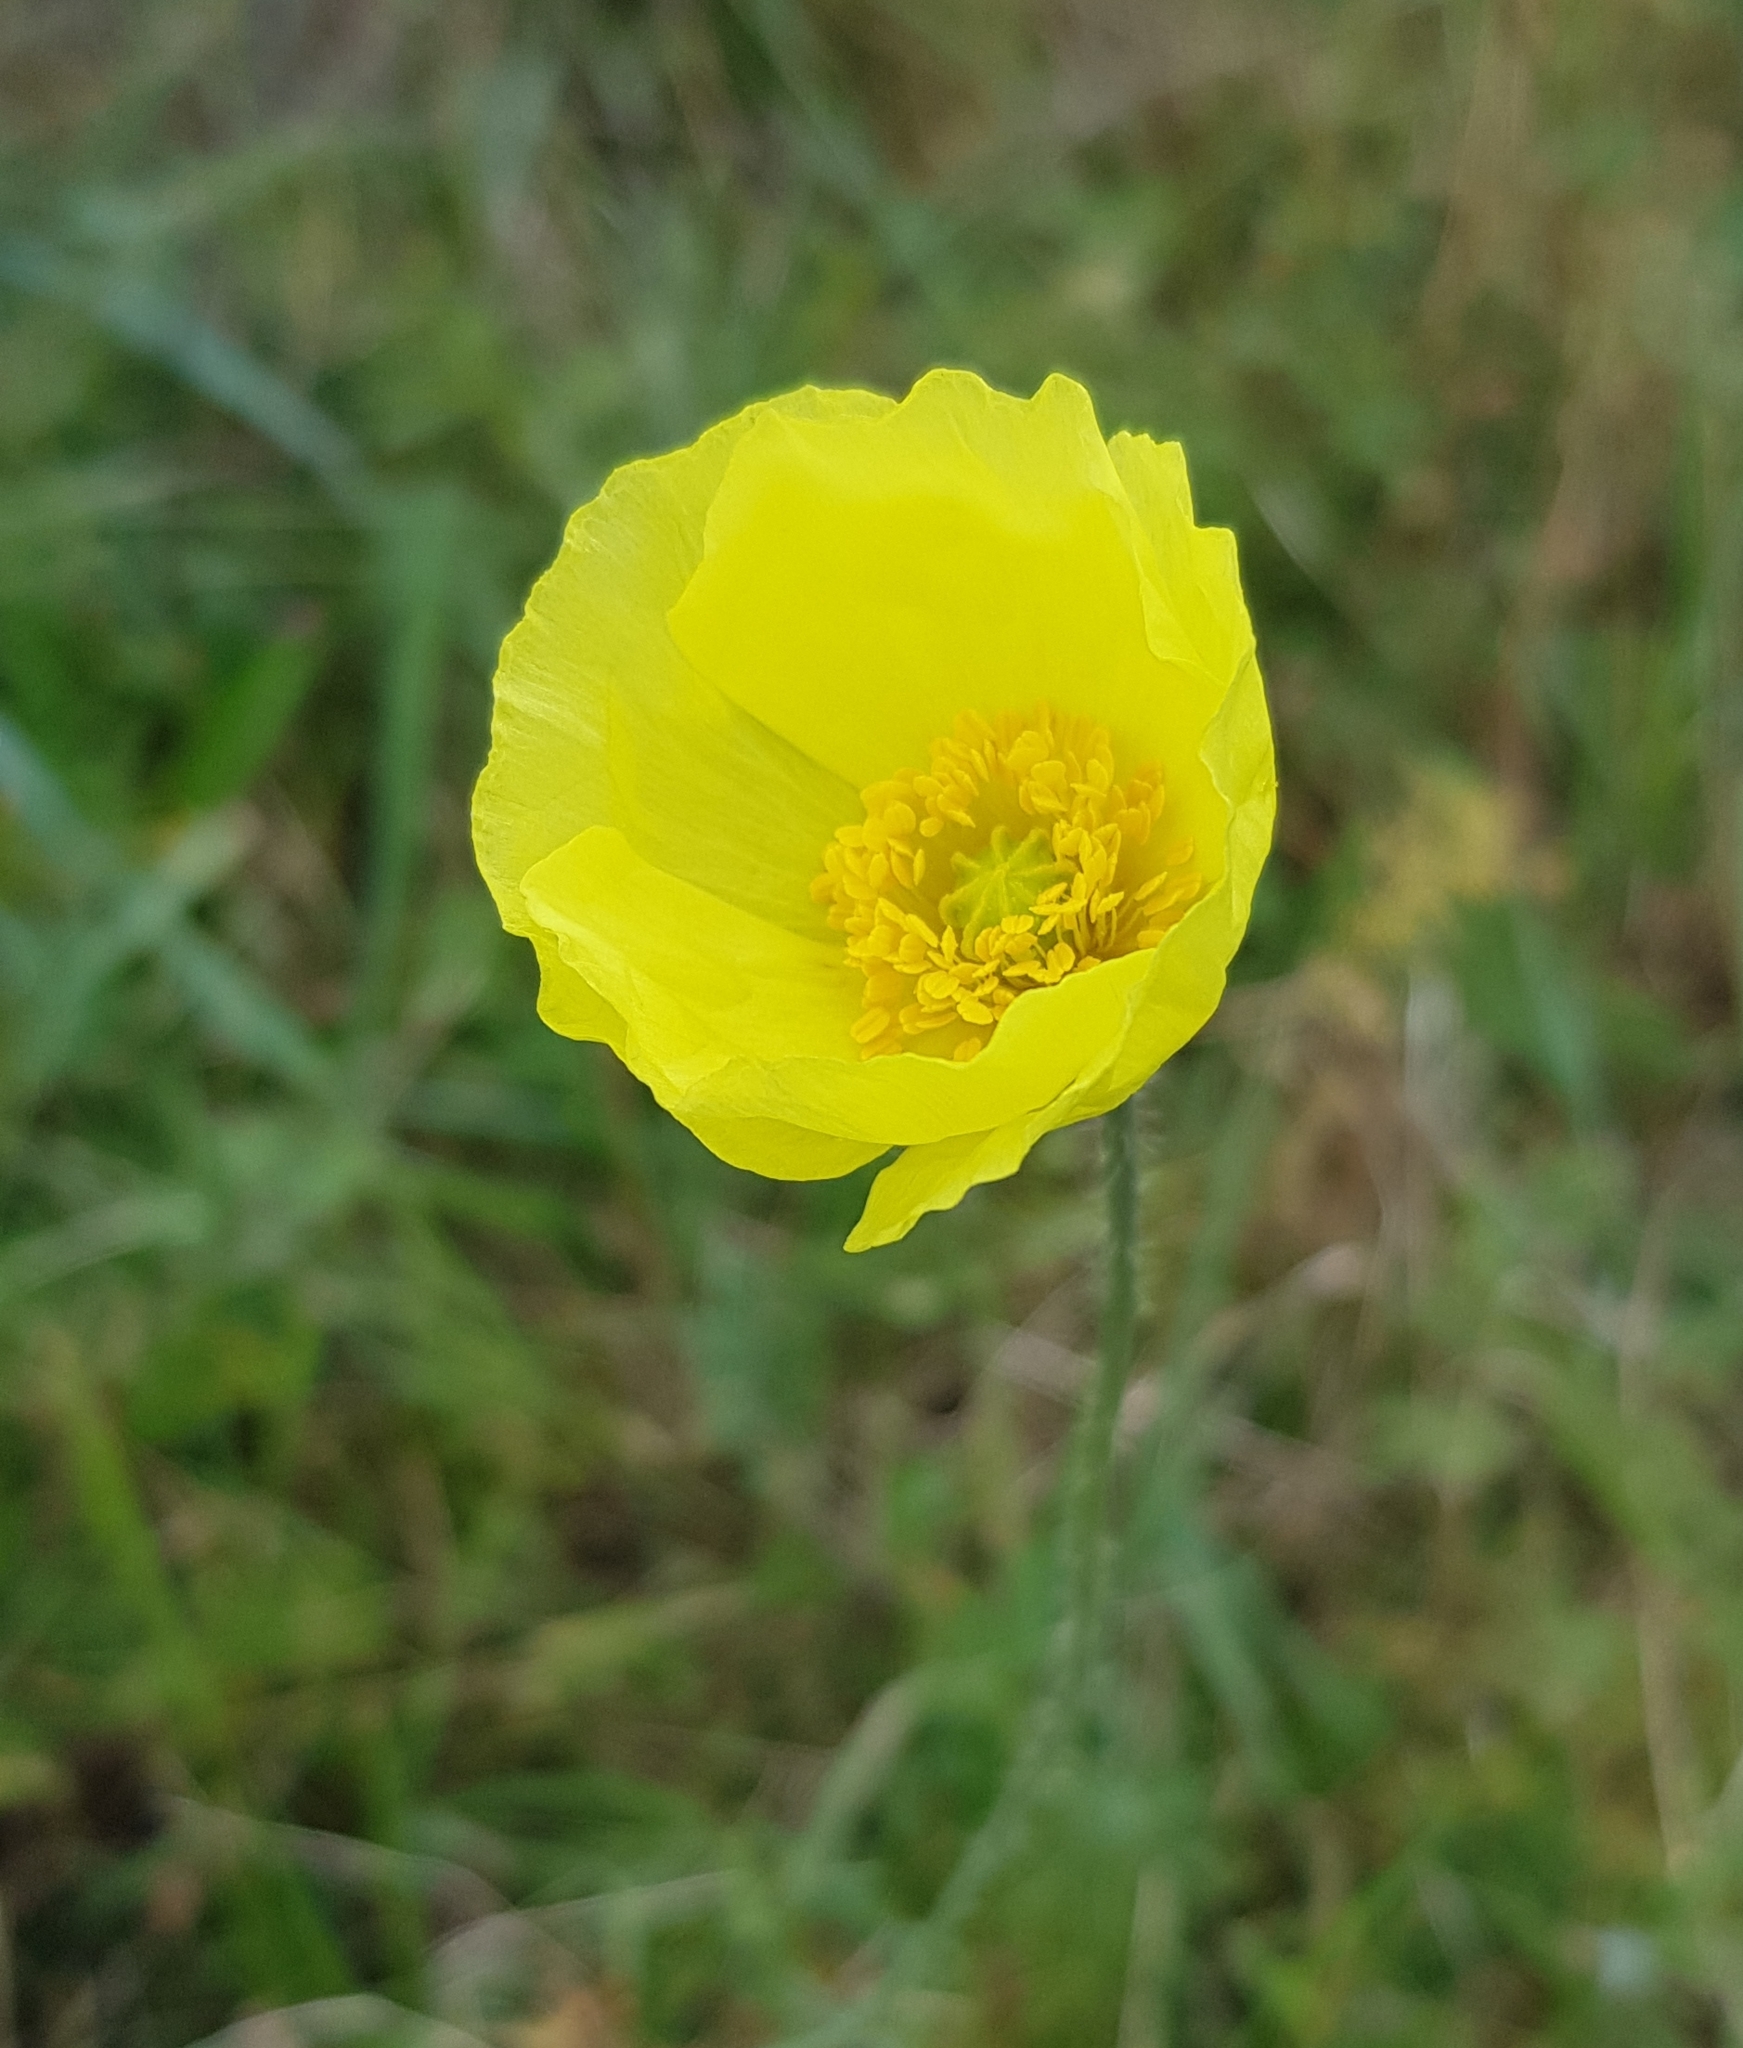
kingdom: Plantae
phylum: Tracheophyta
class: Magnoliopsida
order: Ranunculales
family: Papaveraceae
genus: Papaver
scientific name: Papaver nudicaule
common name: Arctic poppy
